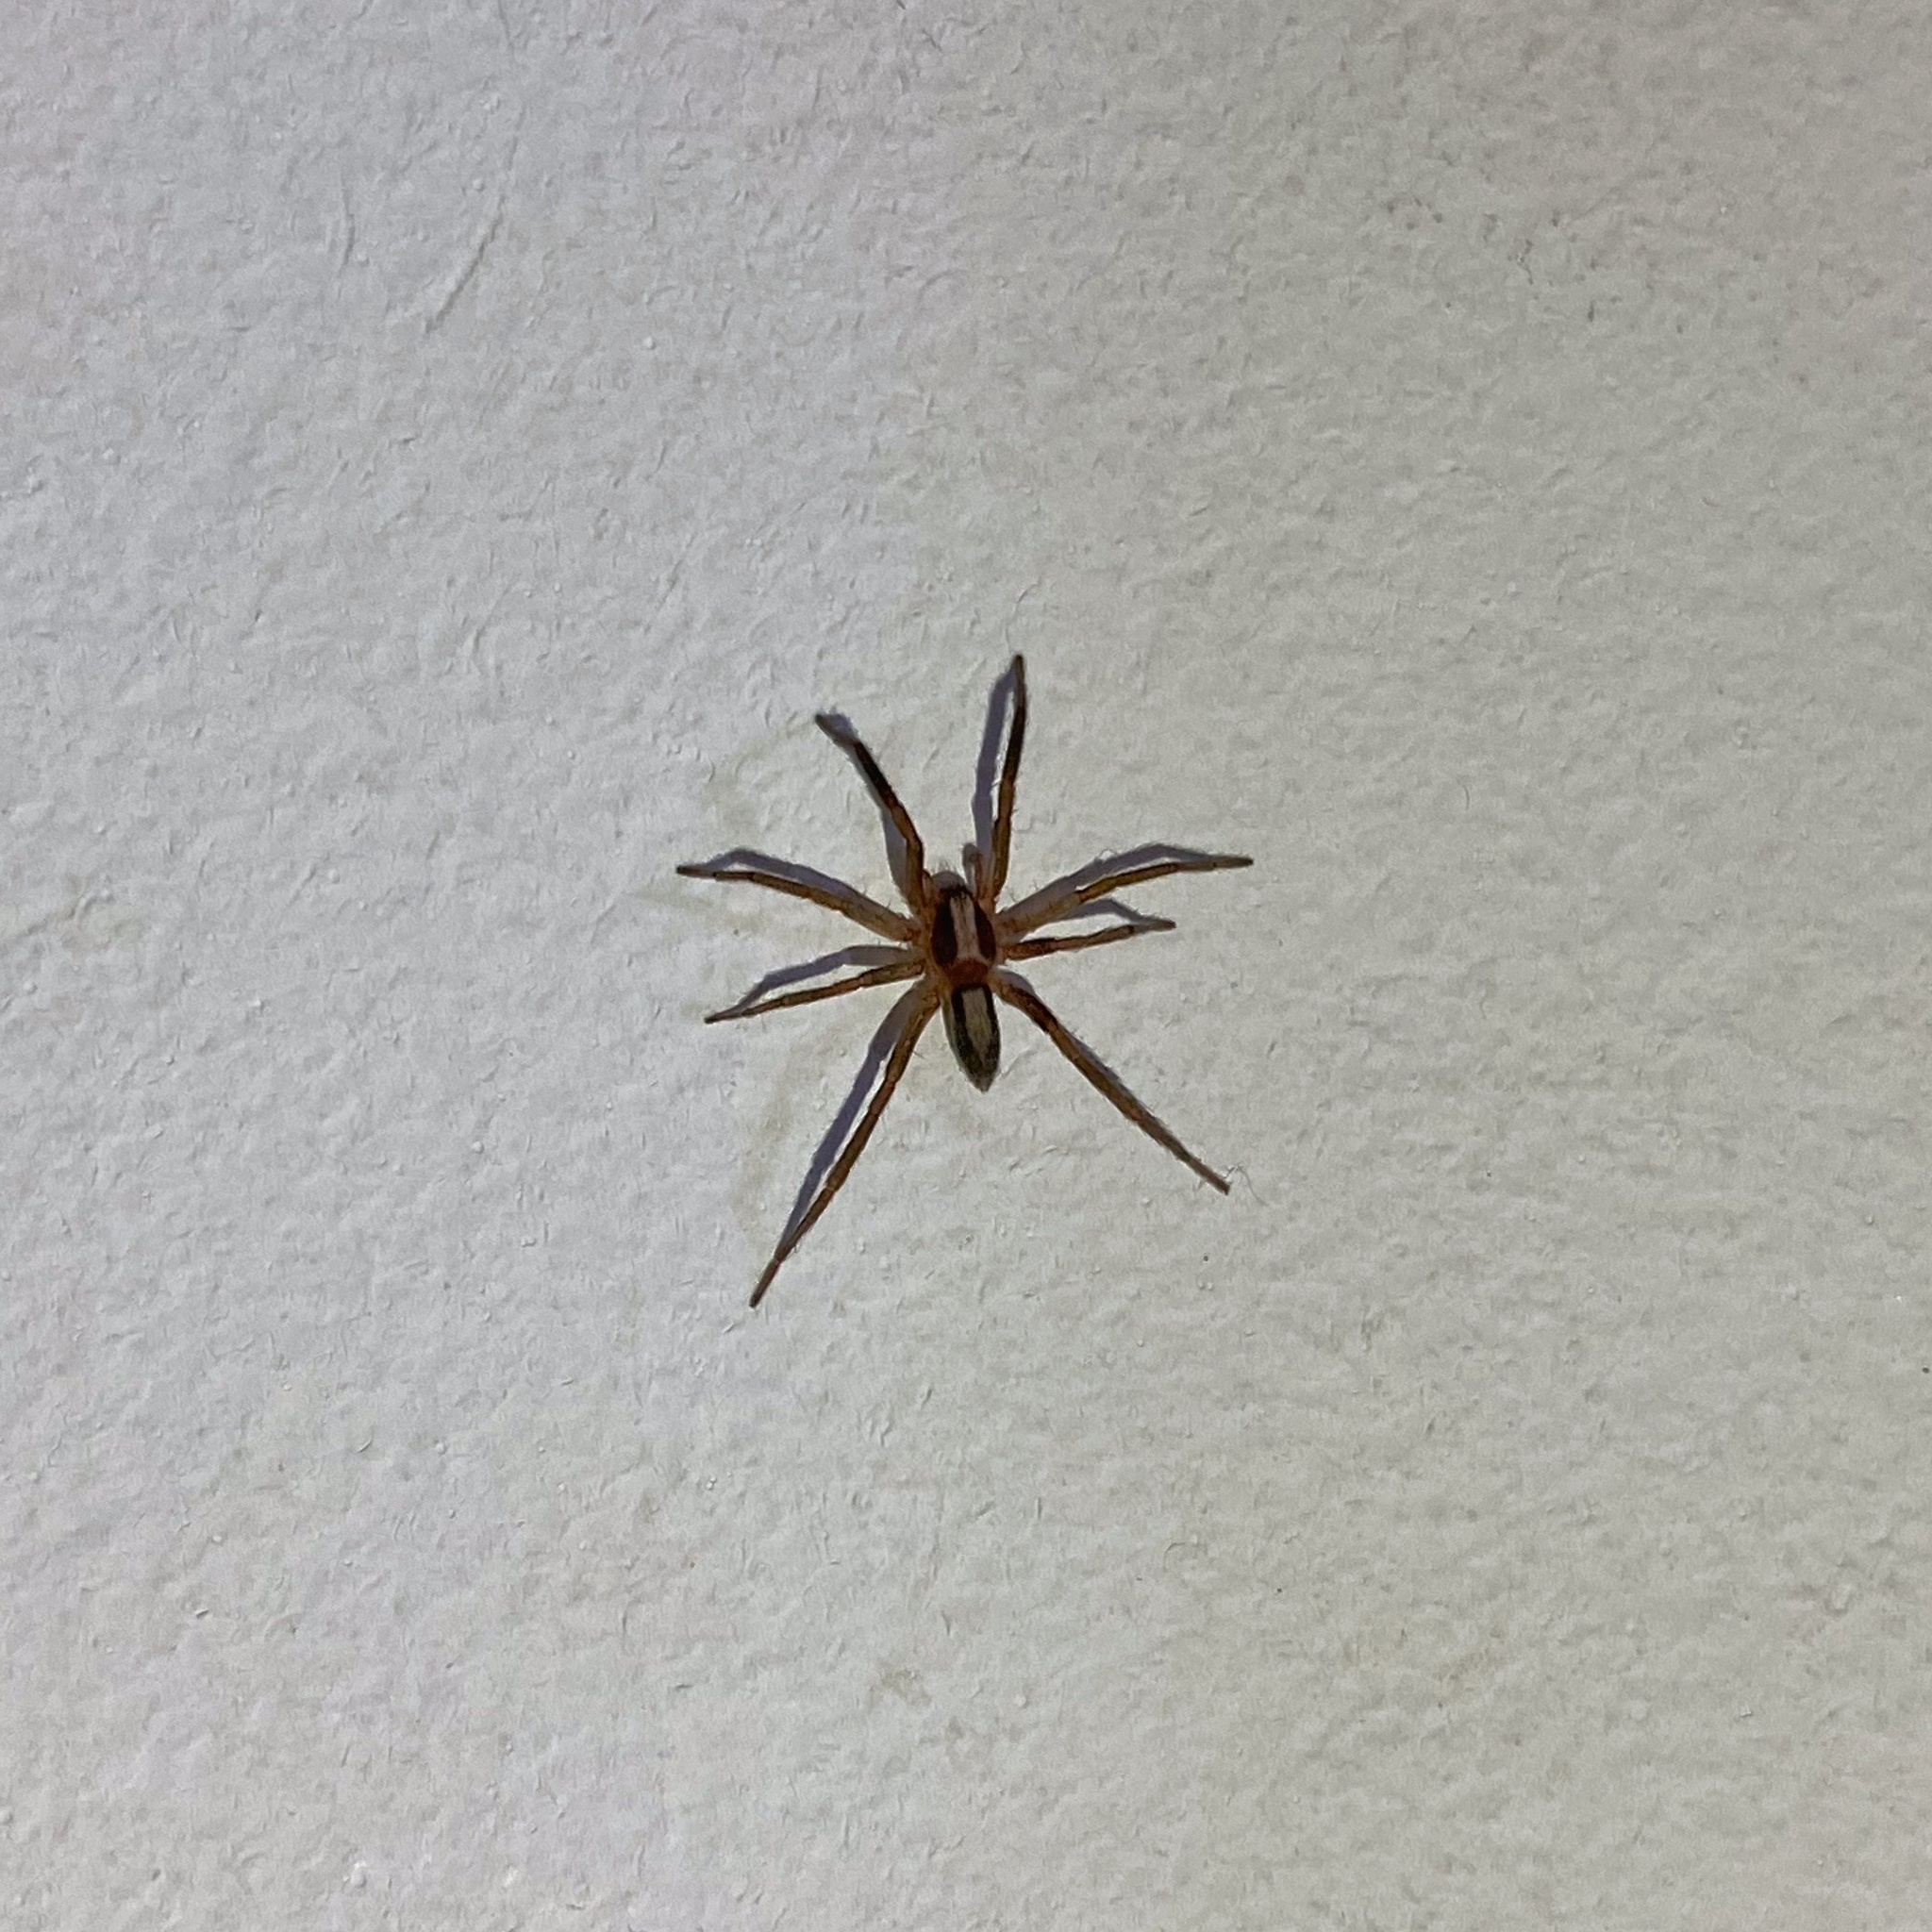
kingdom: Animalia
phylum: Arthropoda
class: Arachnida
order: Araneae
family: Miturgidae
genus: Teminius
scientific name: Teminius insularis
